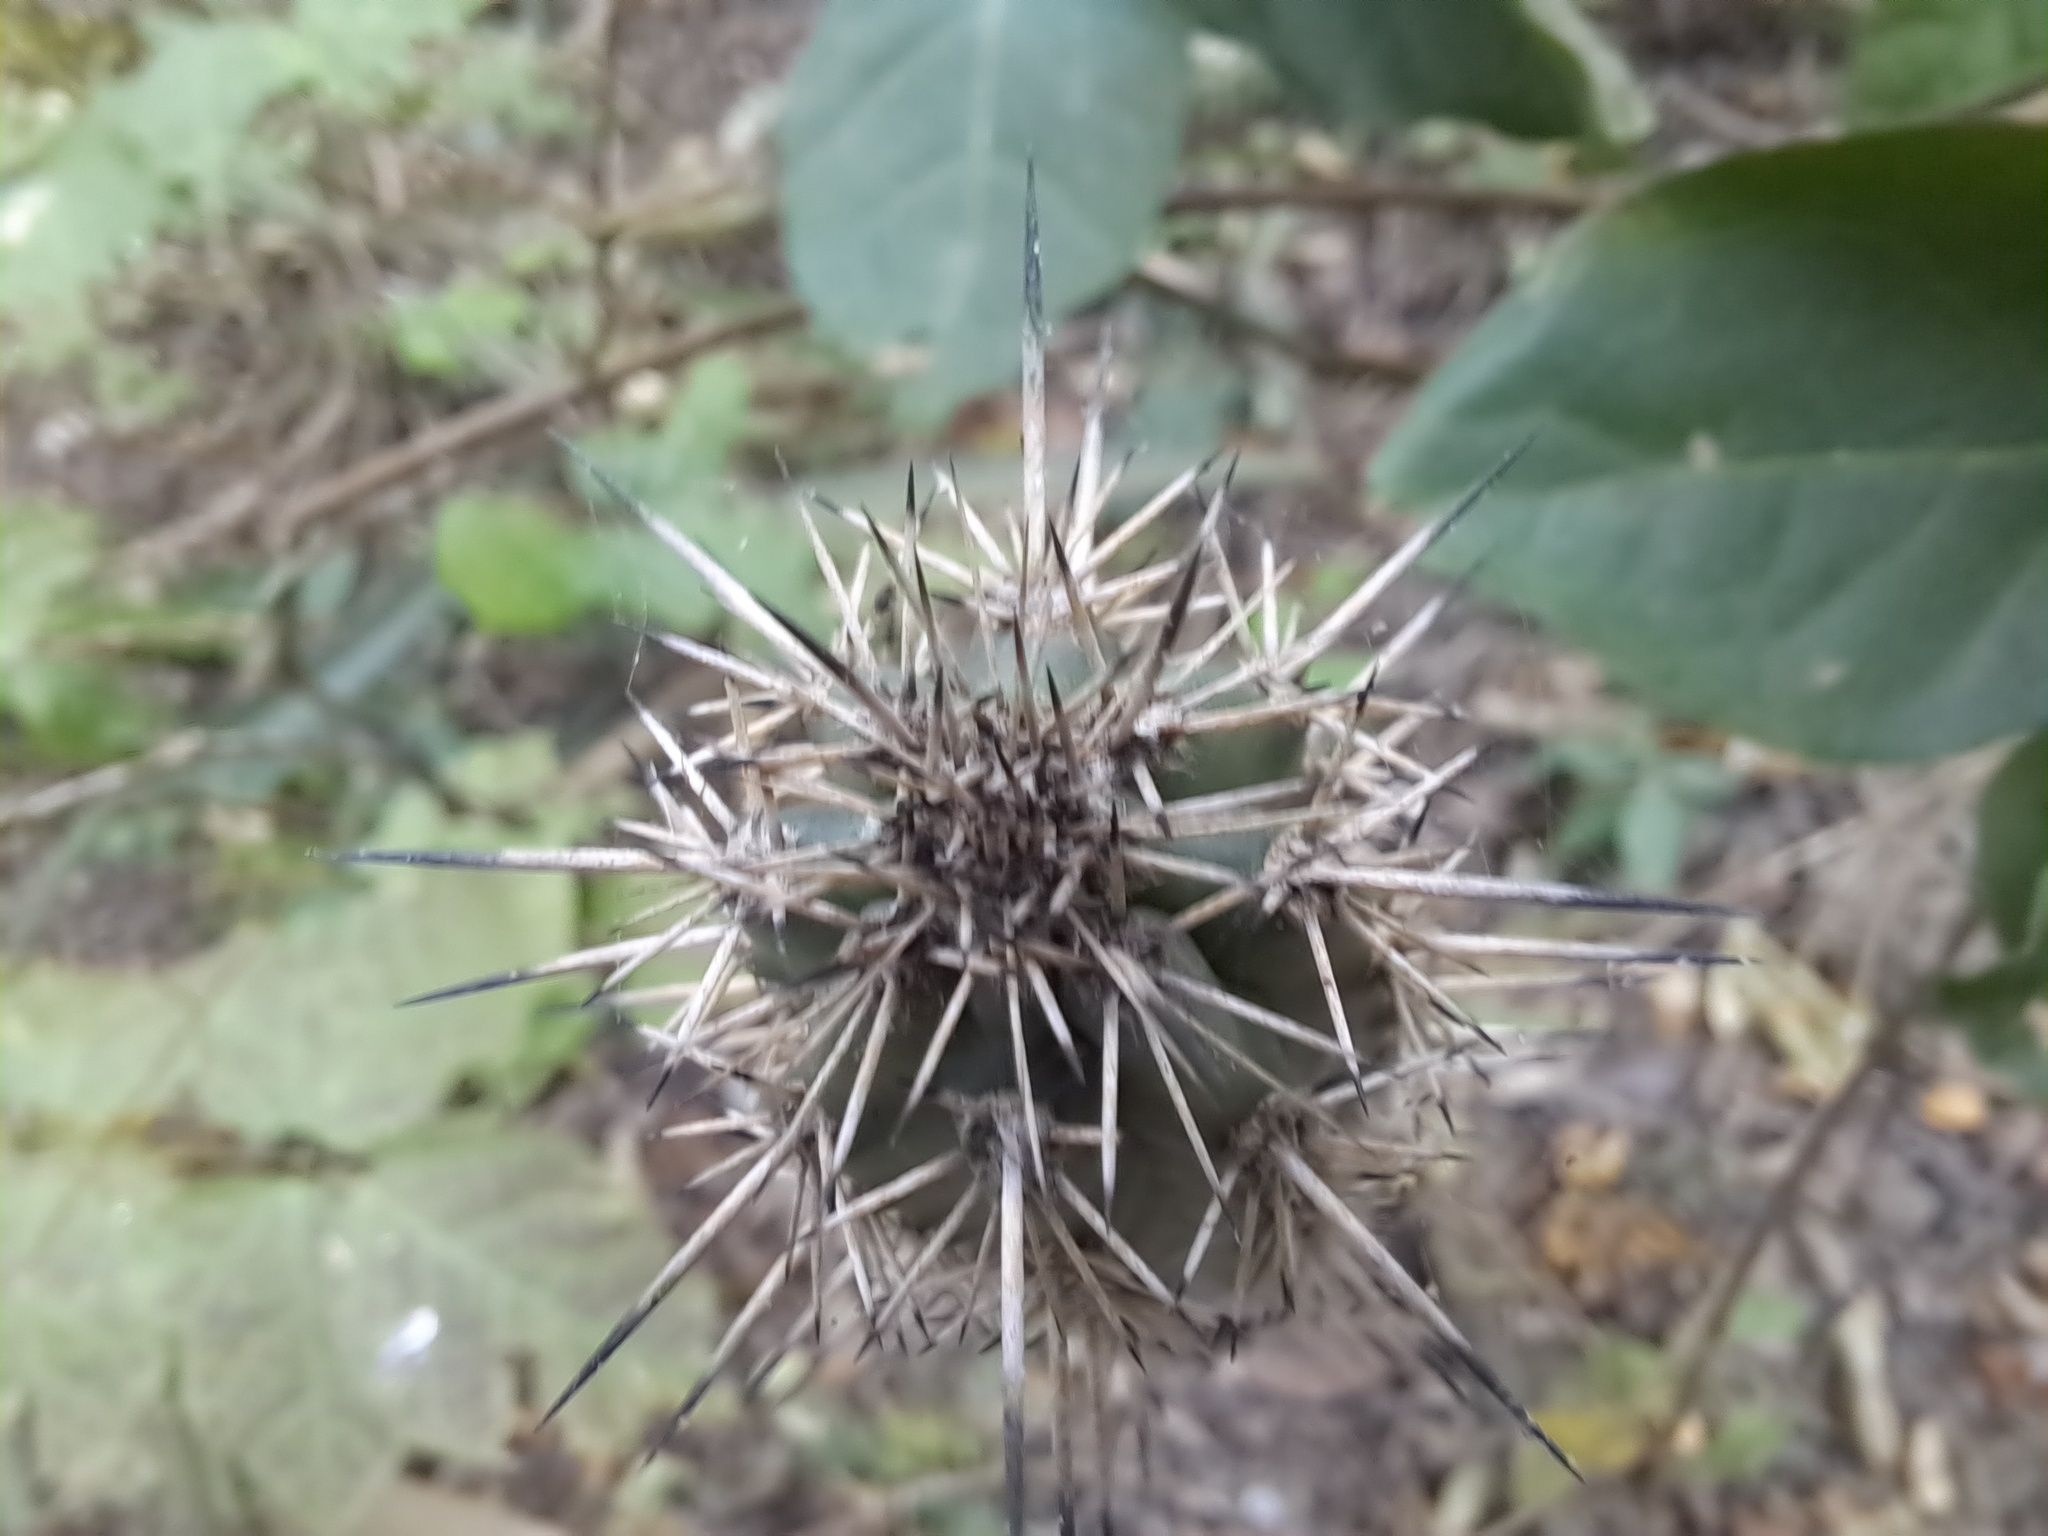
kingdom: Plantae
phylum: Tracheophyta
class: Magnoliopsida
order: Caryophyllales
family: Cactaceae
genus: Armatocereus
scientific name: Armatocereus cartwrightianus
